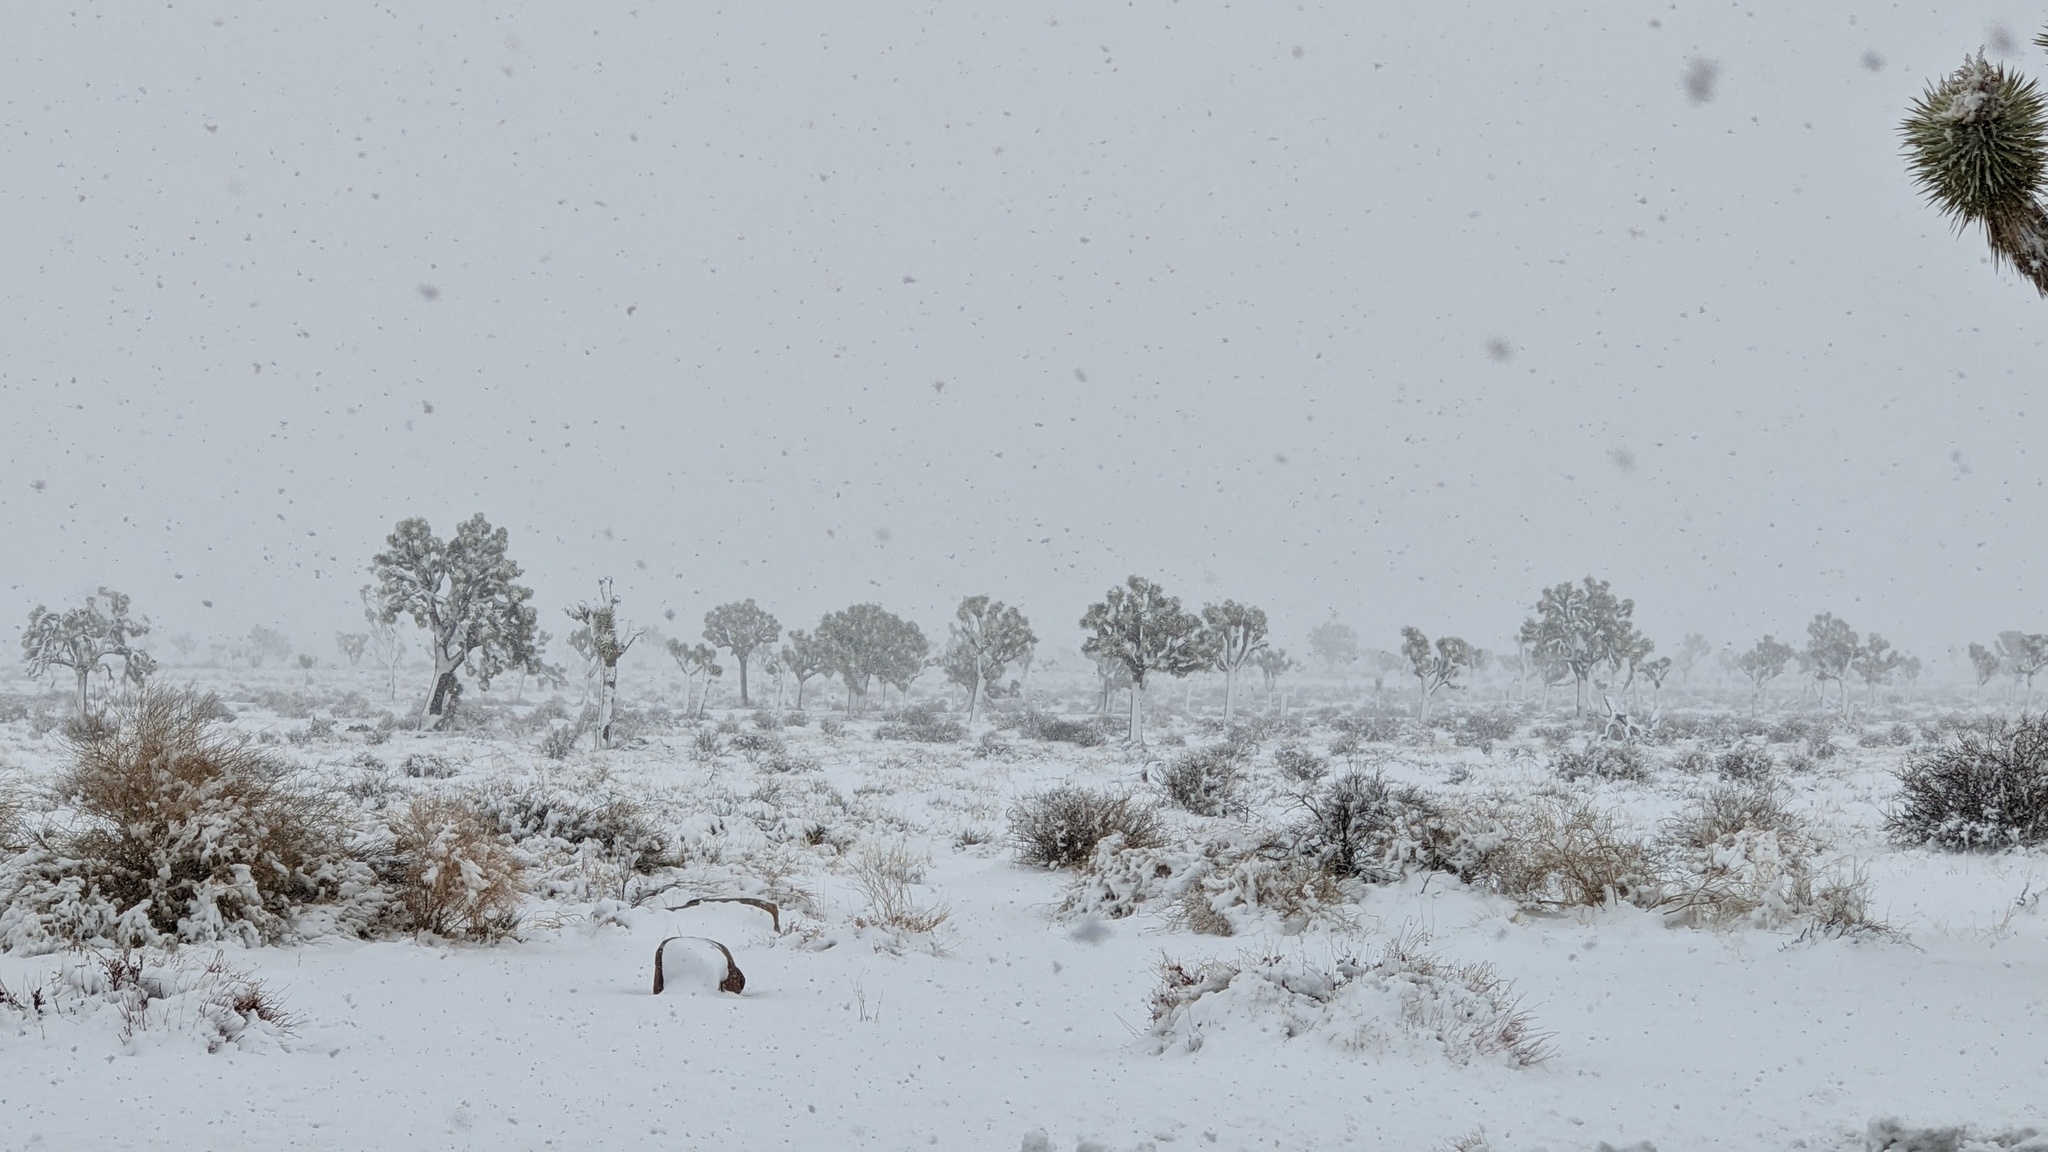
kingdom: Plantae
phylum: Tracheophyta
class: Liliopsida
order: Asparagales
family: Asparagaceae
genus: Yucca
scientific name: Yucca brevifolia
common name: Joshua tree
